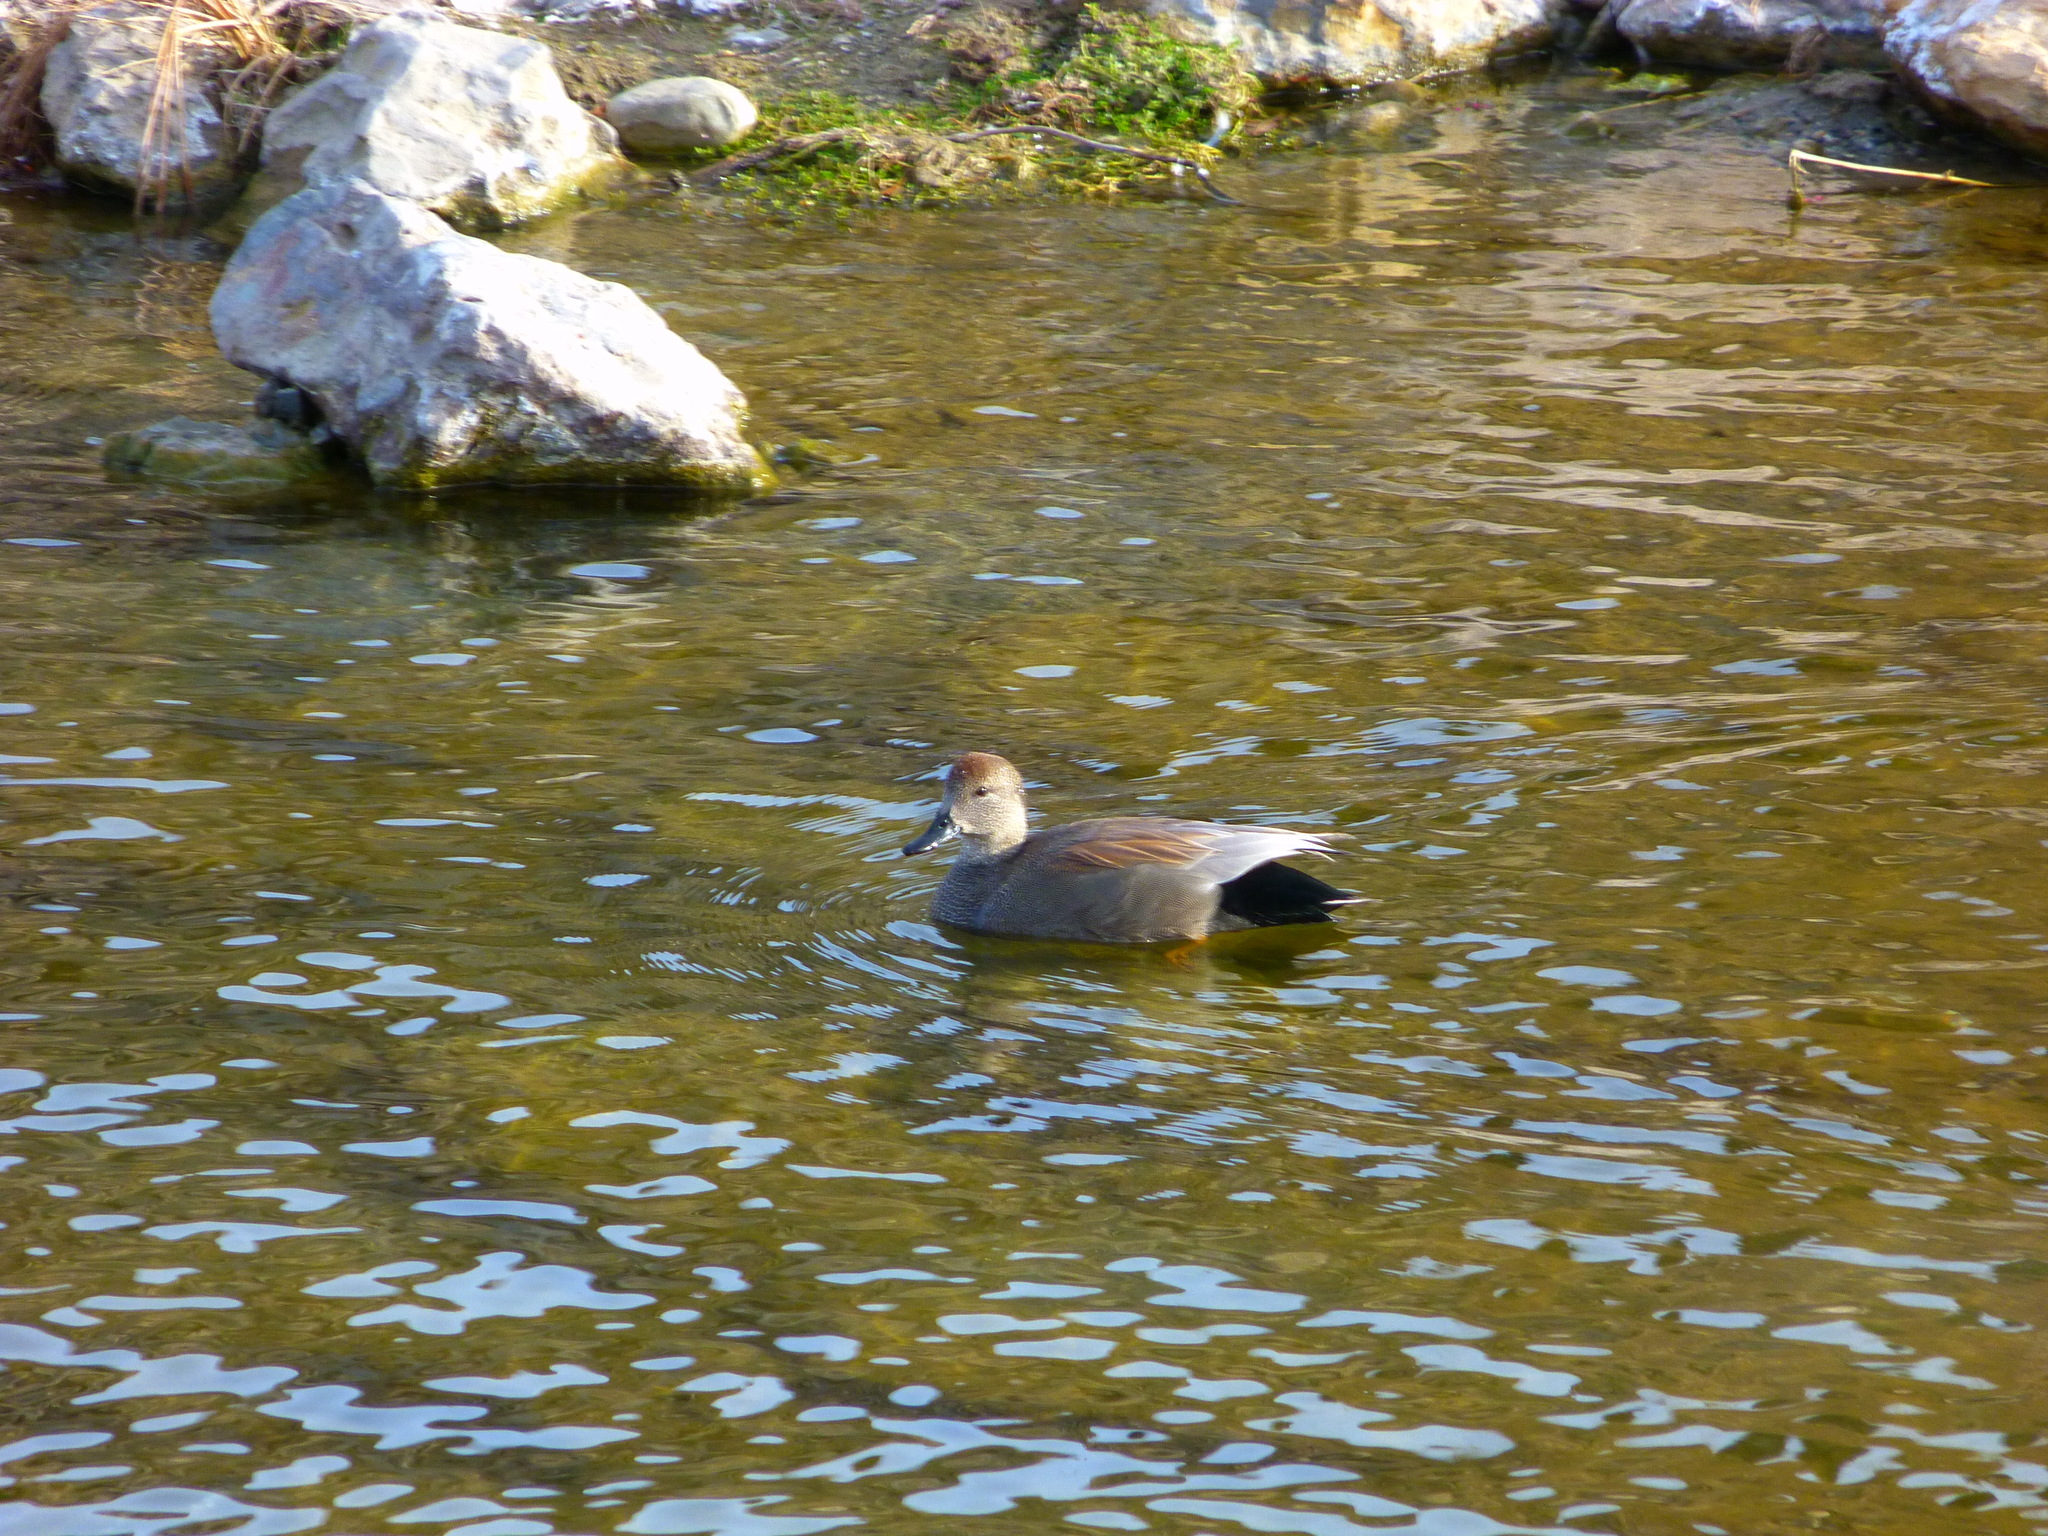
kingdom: Animalia
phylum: Chordata
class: Aves
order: Anseriformes
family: Anatidae
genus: Mareca
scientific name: Mareca strepera
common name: Gadwall
